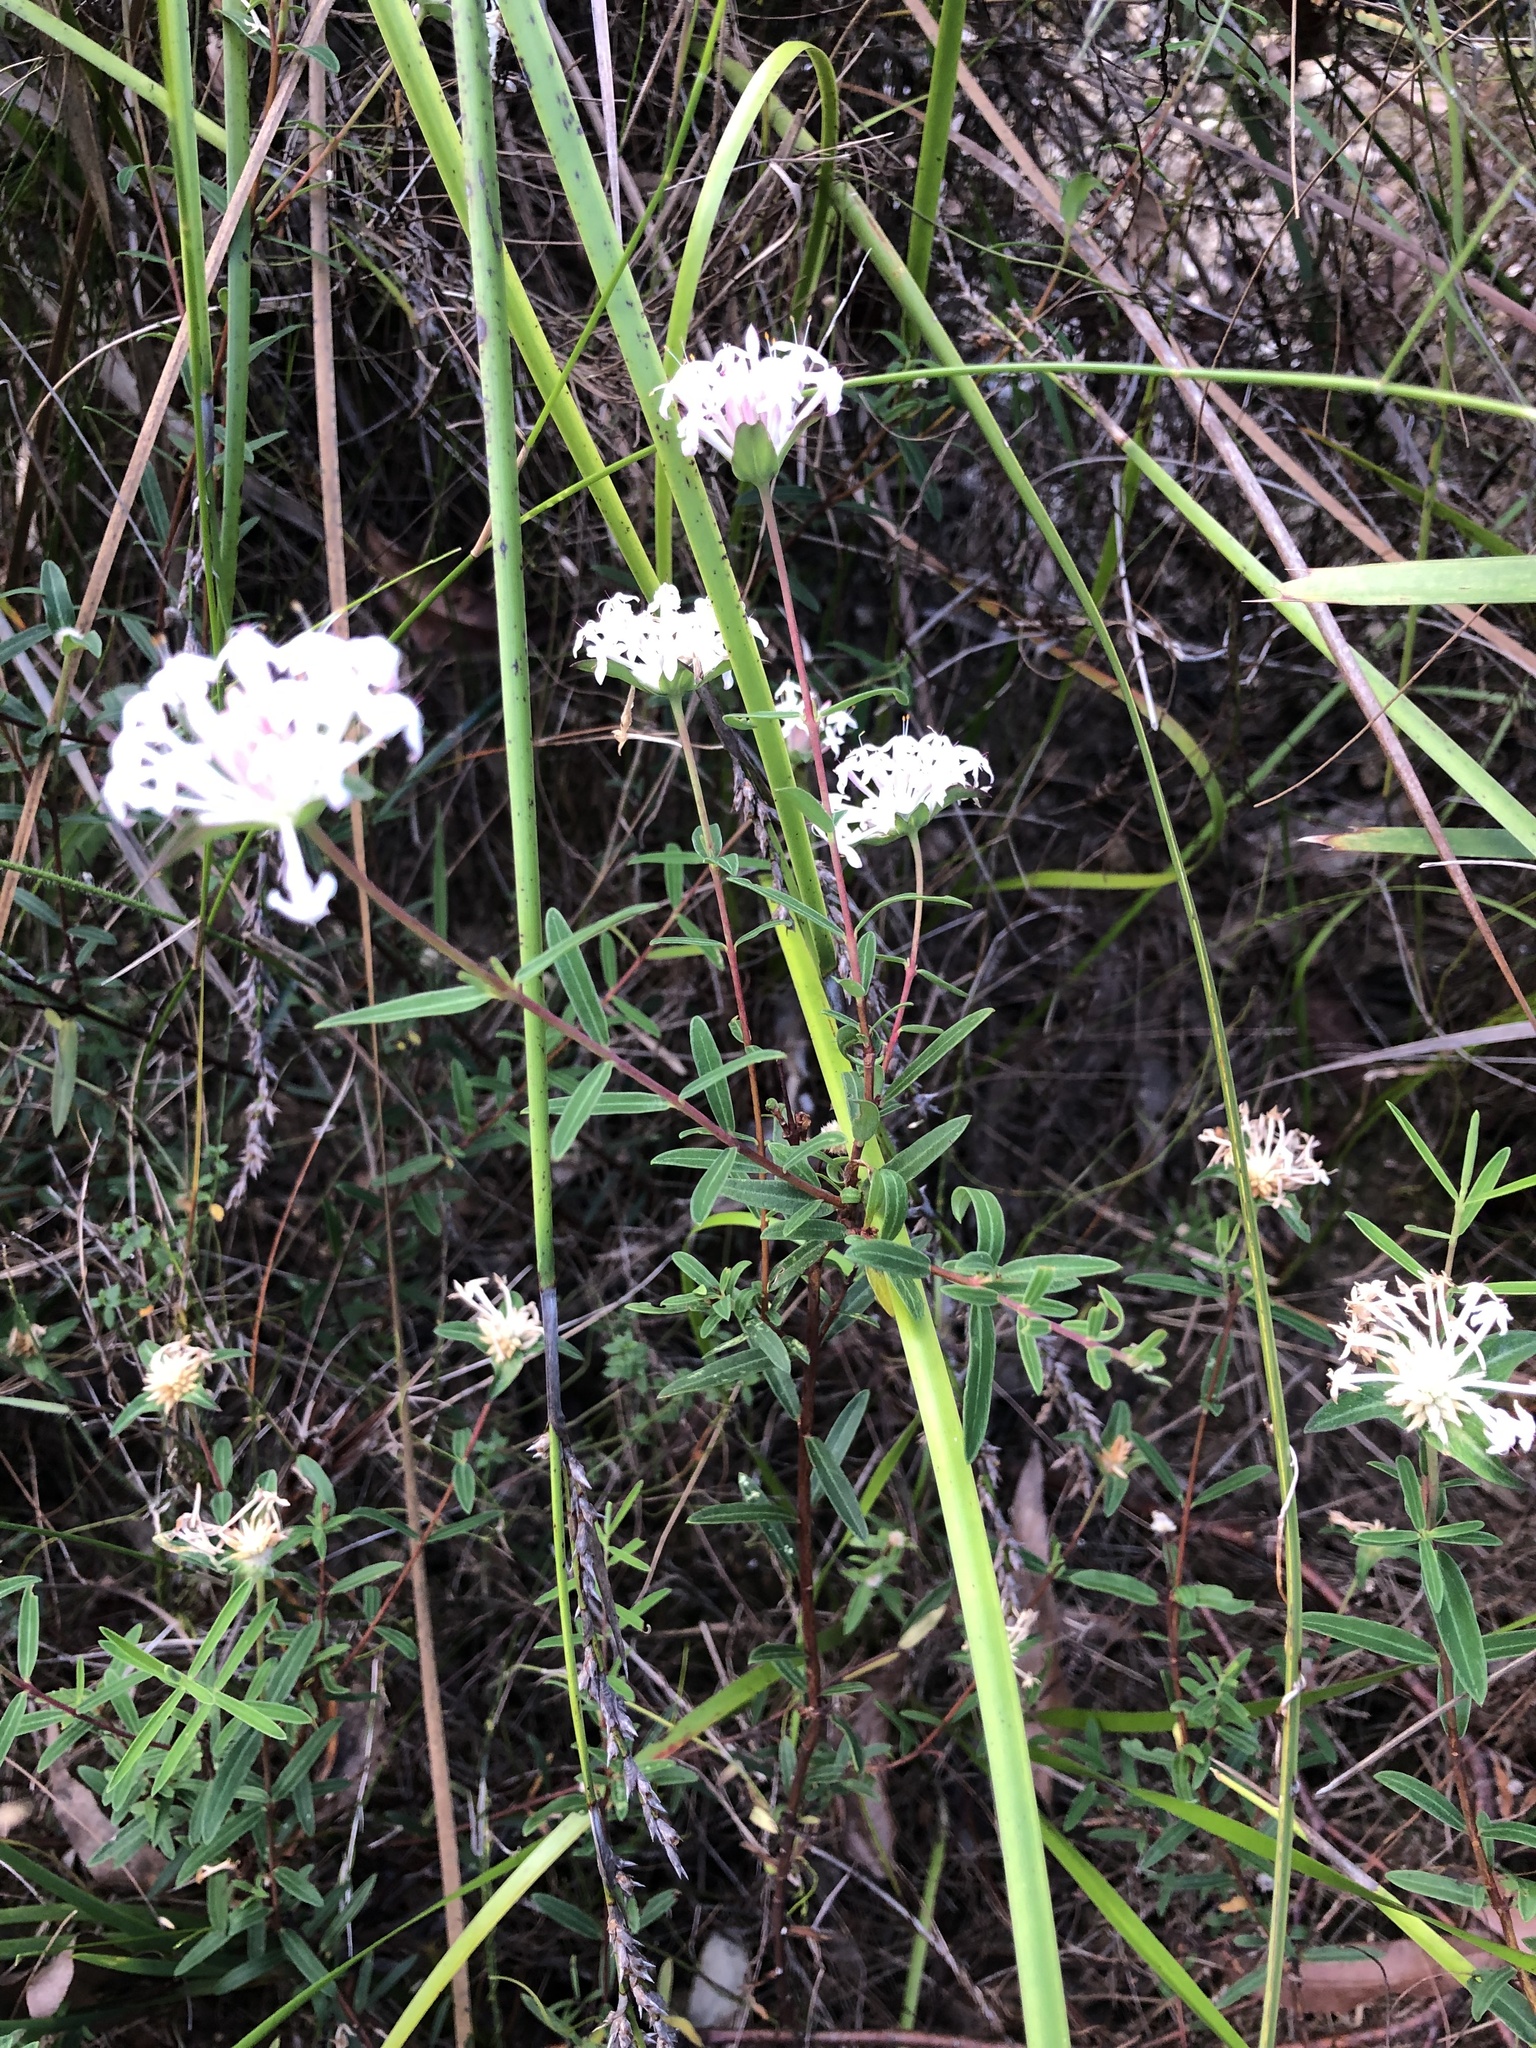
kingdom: Plantae
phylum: Tracheophyta
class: Magnoliopsida
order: Malvales
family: Thymelaeaceae
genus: Pimelea
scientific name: Pimelea linifolia
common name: Queen-of-the-bush
